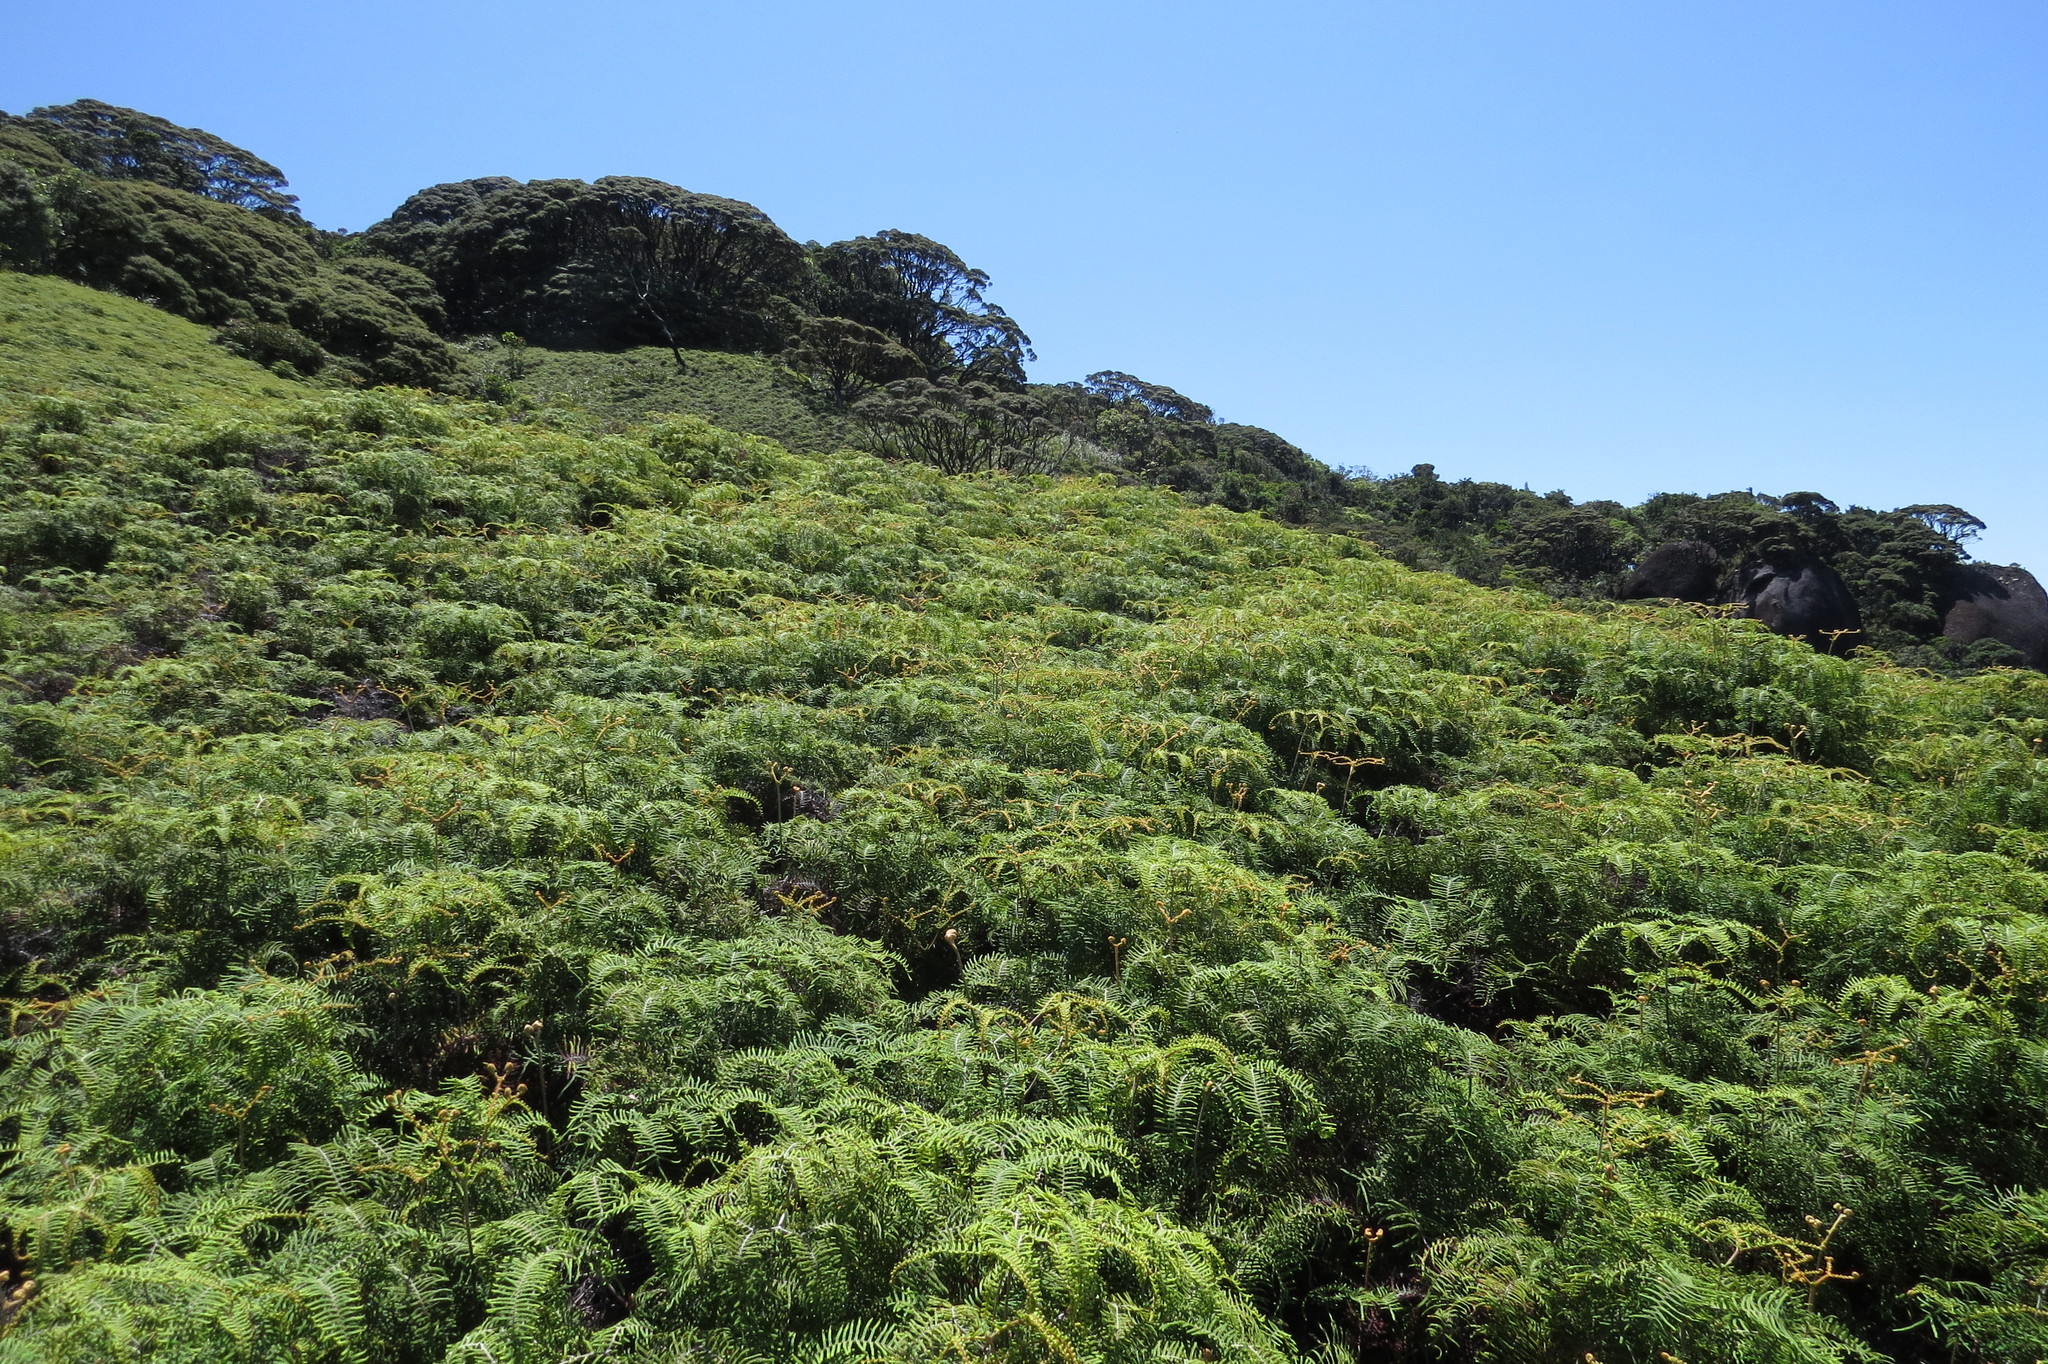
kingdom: Plantae
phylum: Tracheophyta
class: Polypodiopsida
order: Gleicheniales
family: Gleicheniaceae
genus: Gleichenia
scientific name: Gleichenia dicarpa
